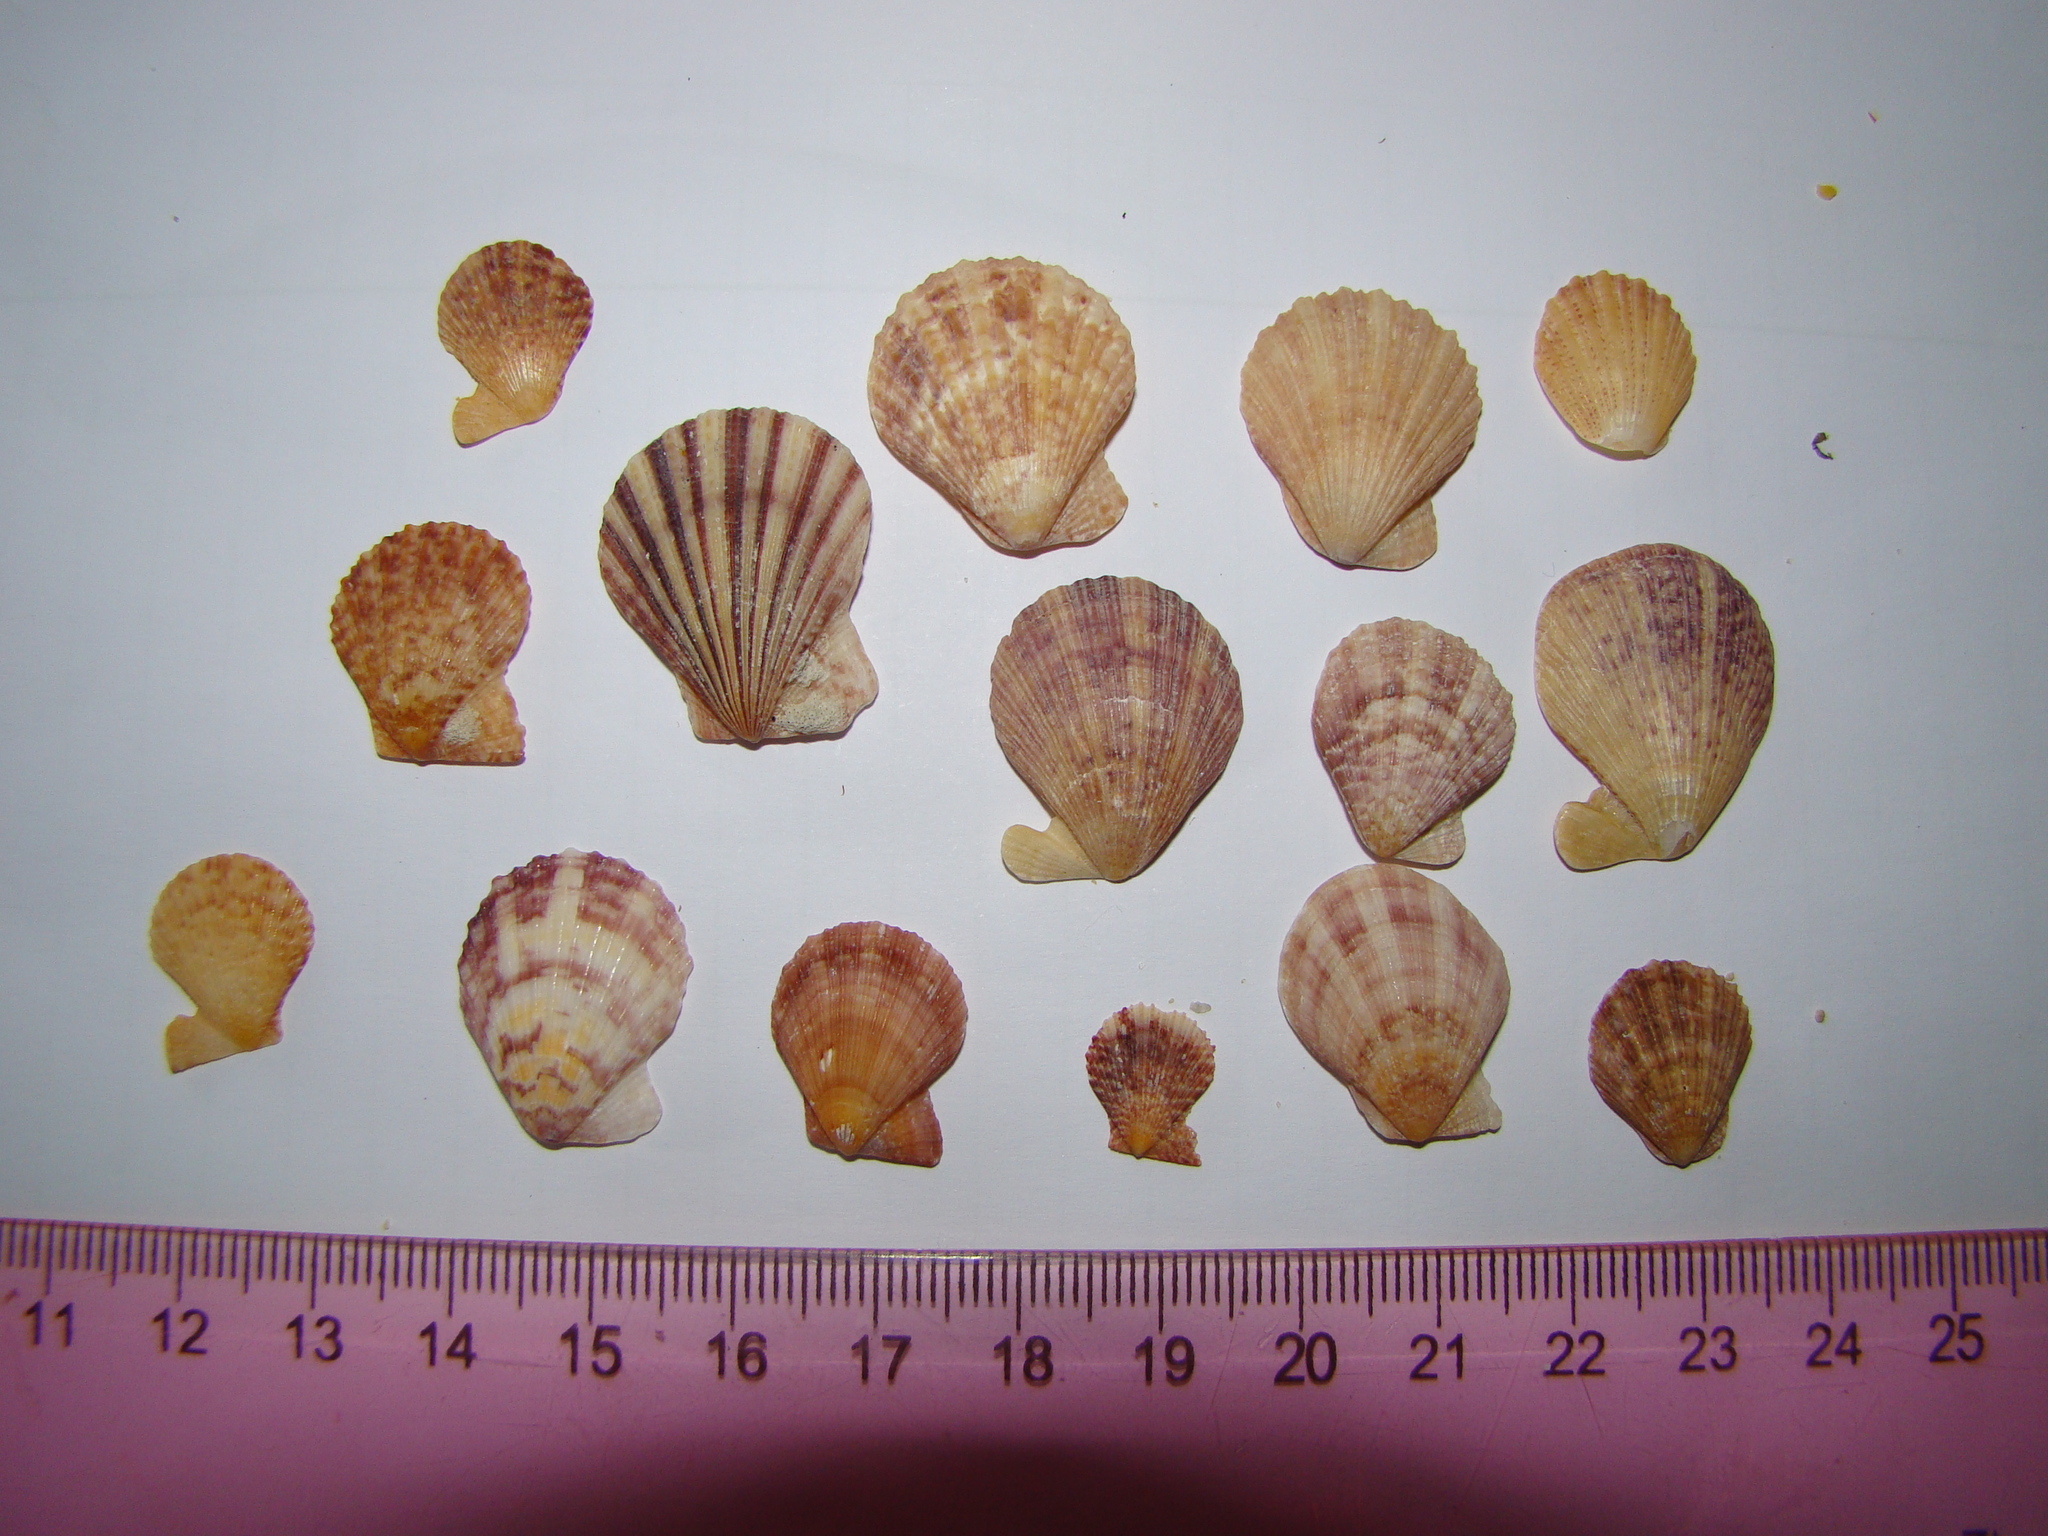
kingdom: Animalia
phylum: Mollusca
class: Bivalvia
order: Pectinida
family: Pectinidae
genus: Talochlamys
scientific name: Talochlamys zelandiae
